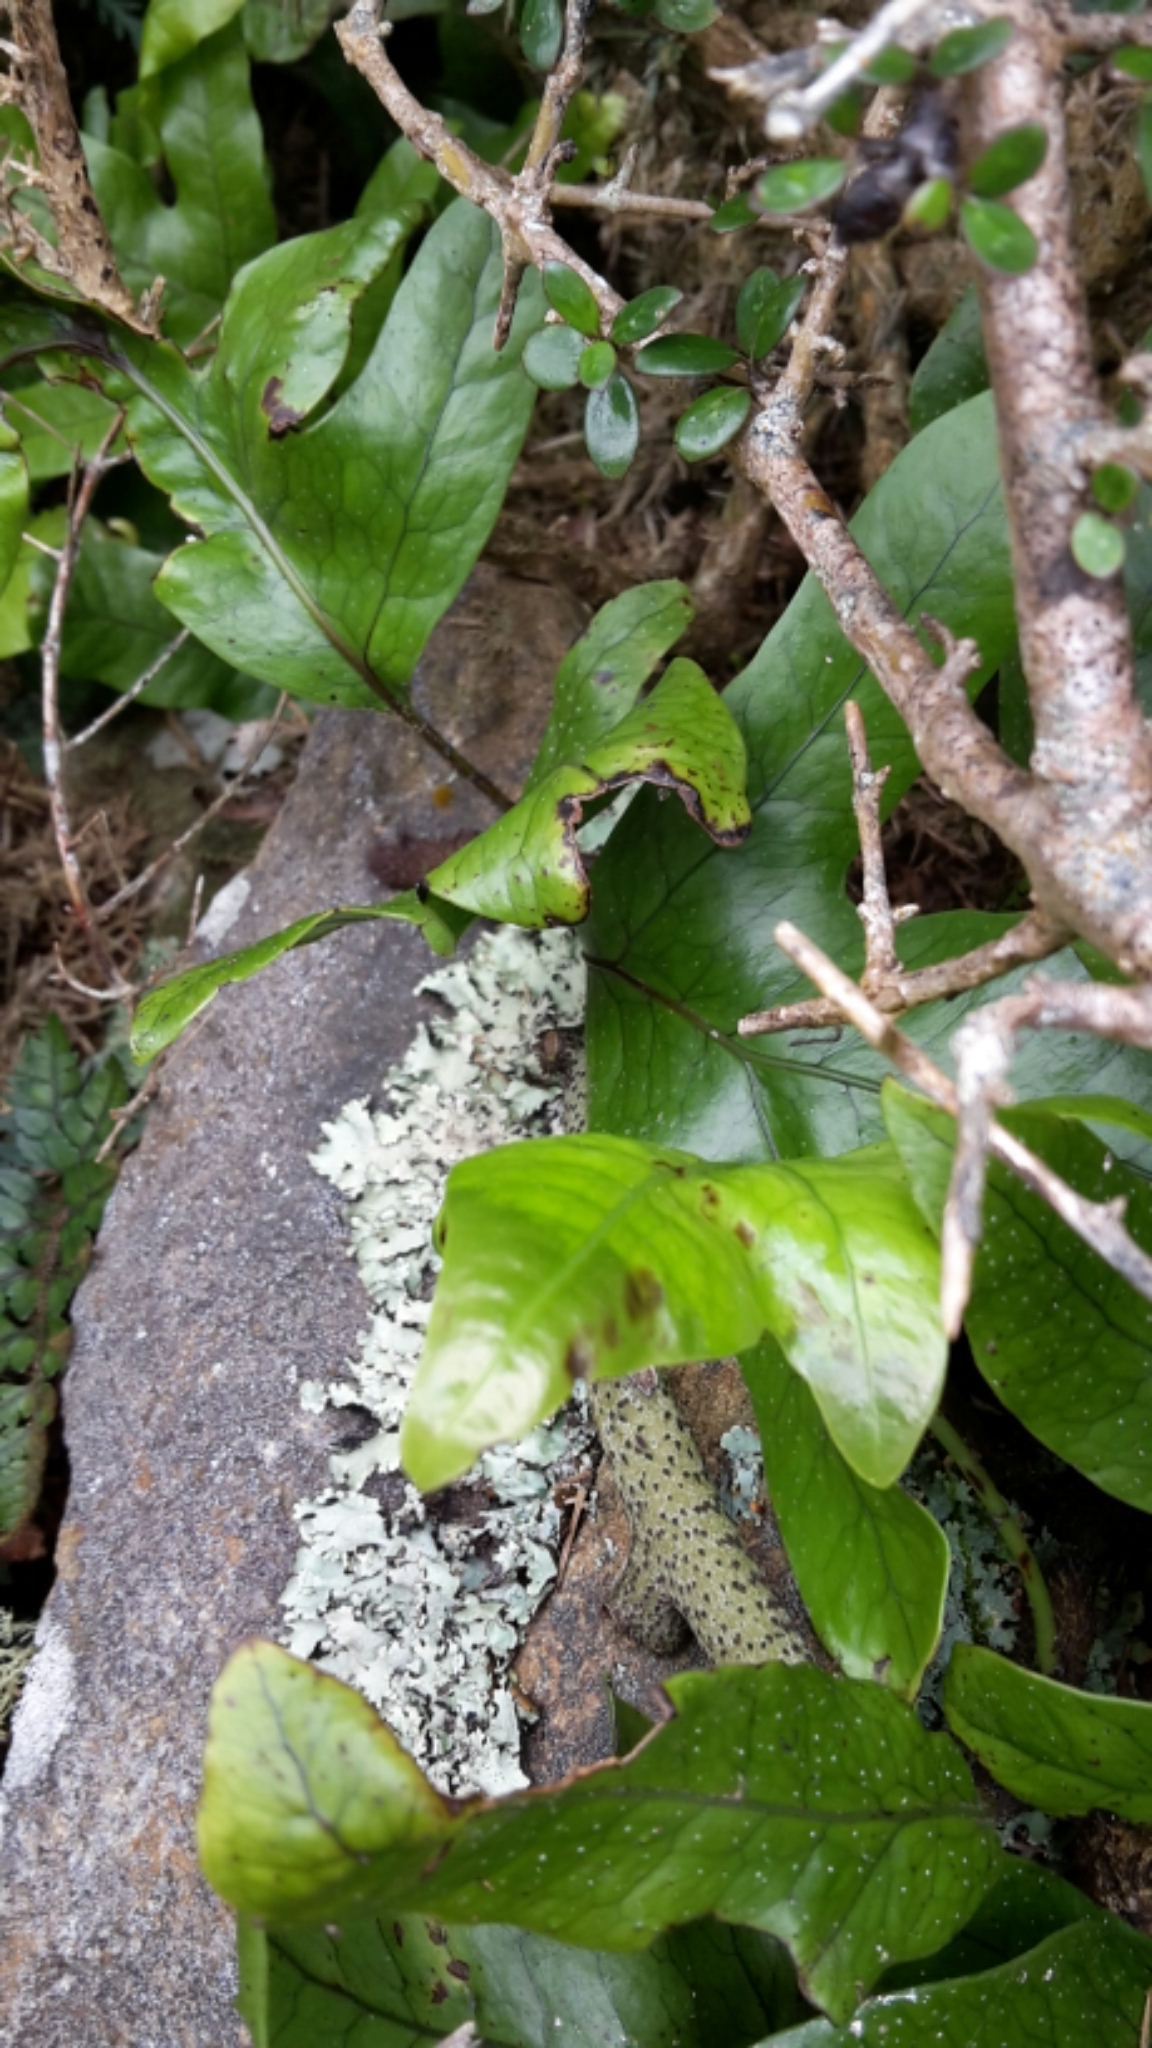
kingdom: Plantae
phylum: Tracheophyta
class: Polypodiopsida
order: Polypodiales
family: Polypodiaceae
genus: Lecanopteris
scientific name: Lecanopteris pustulata
